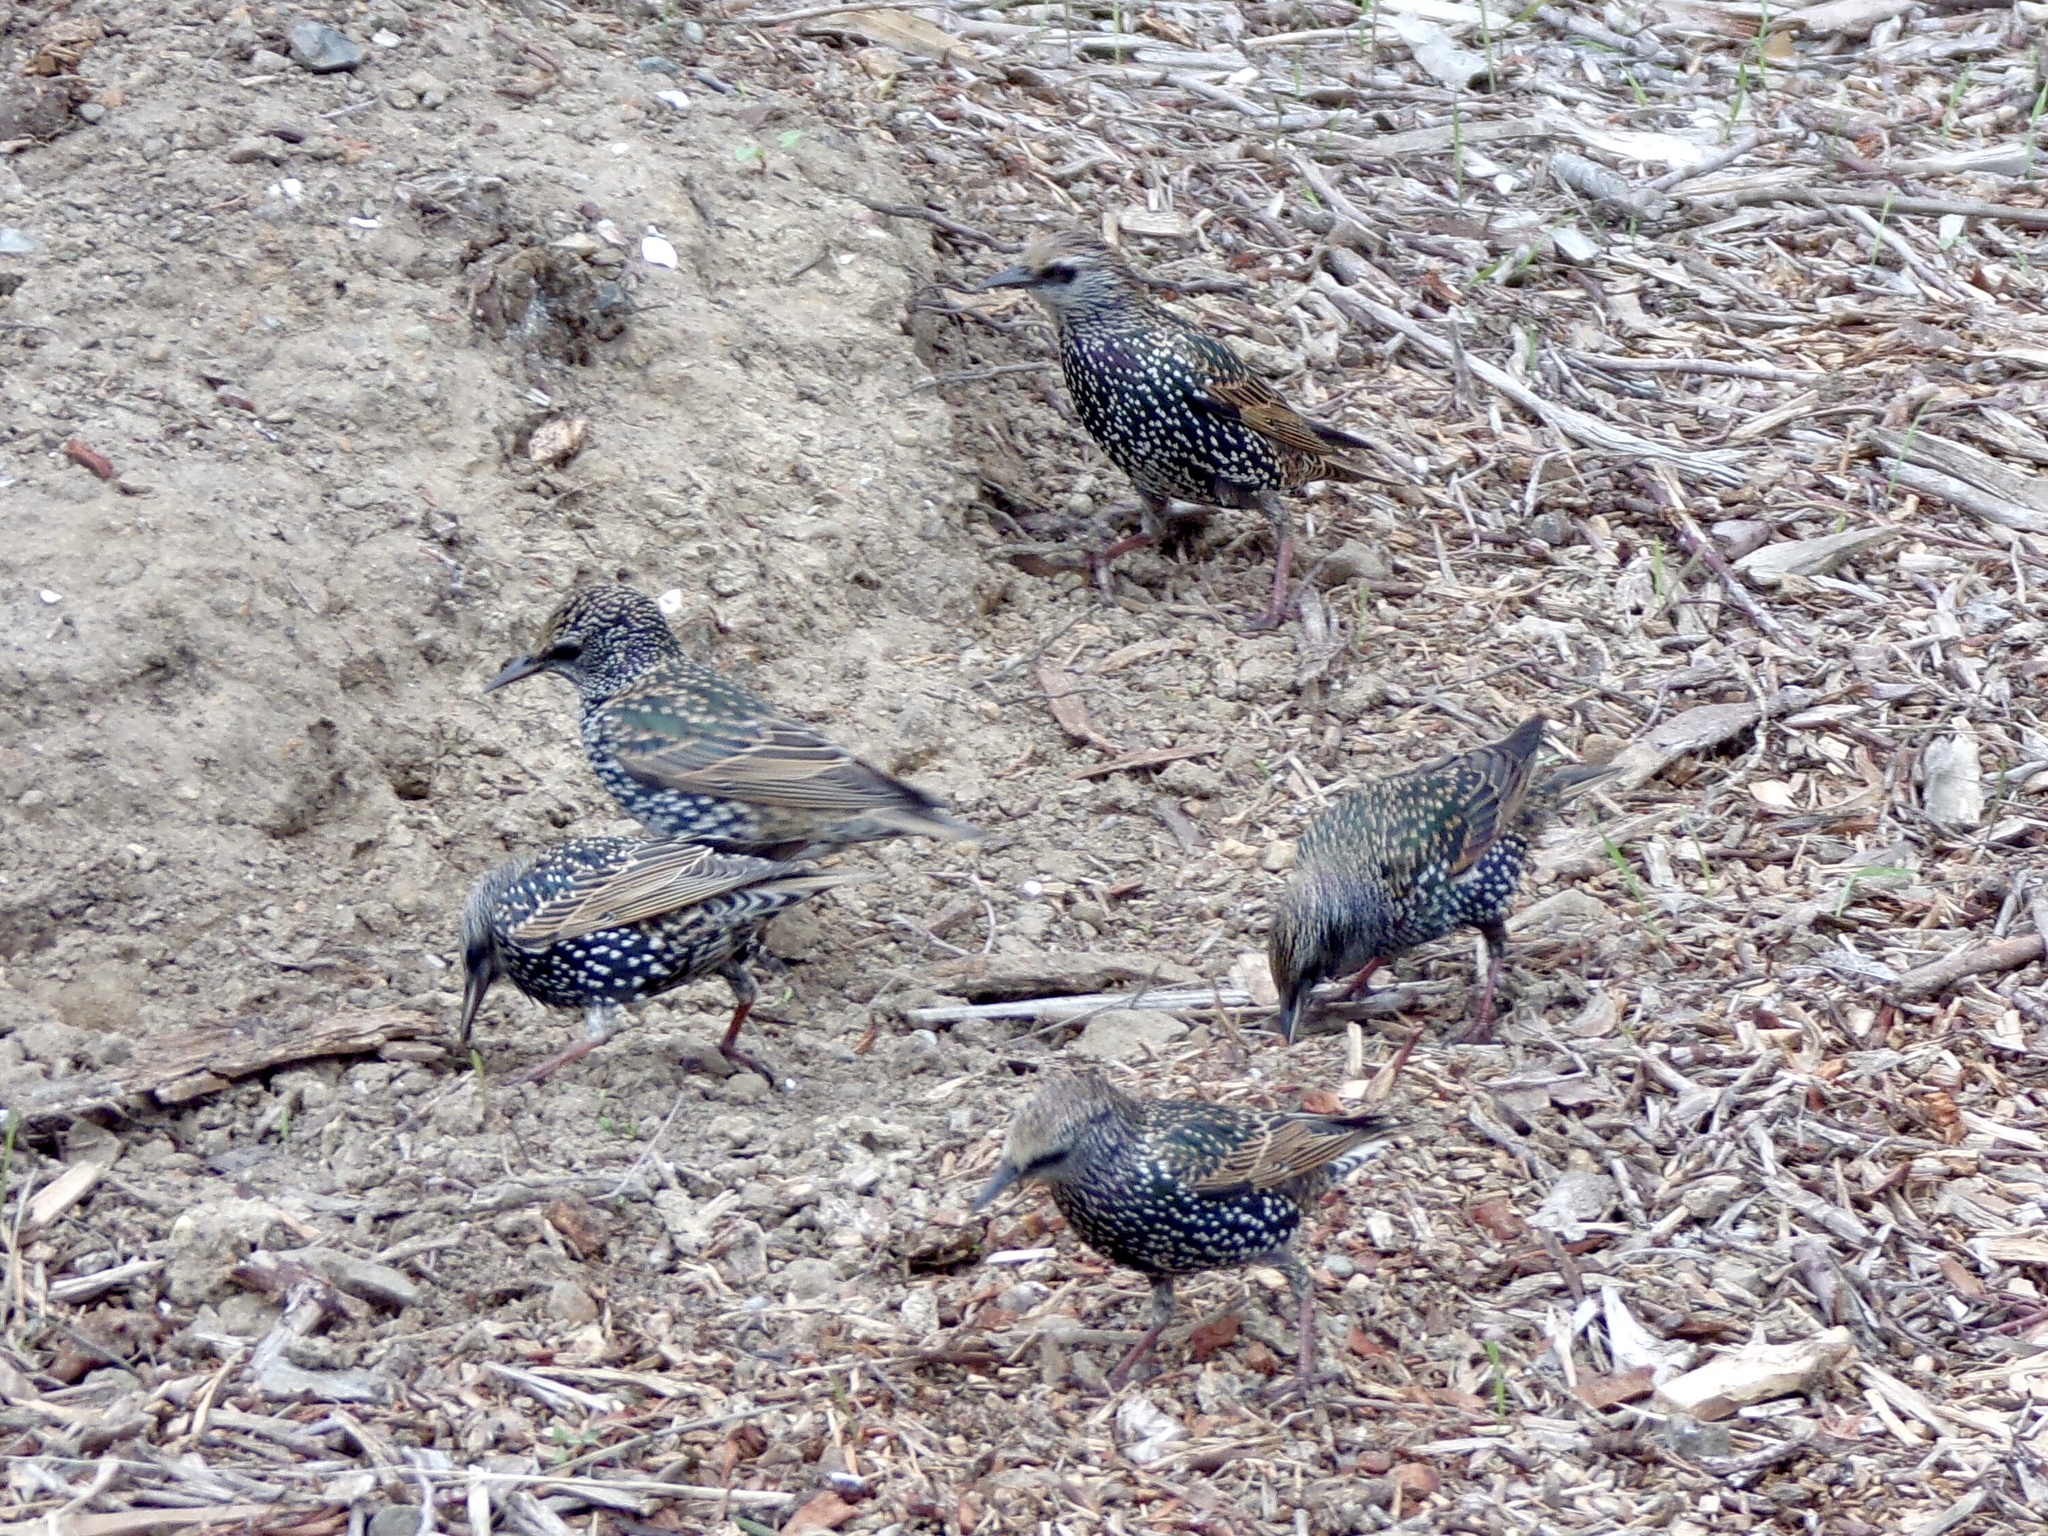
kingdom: Animalia
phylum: Chordata
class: Aves
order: Passeriformes
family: Sturnidae
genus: Sturnus
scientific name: Sturnus vulgaris
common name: Common starling
